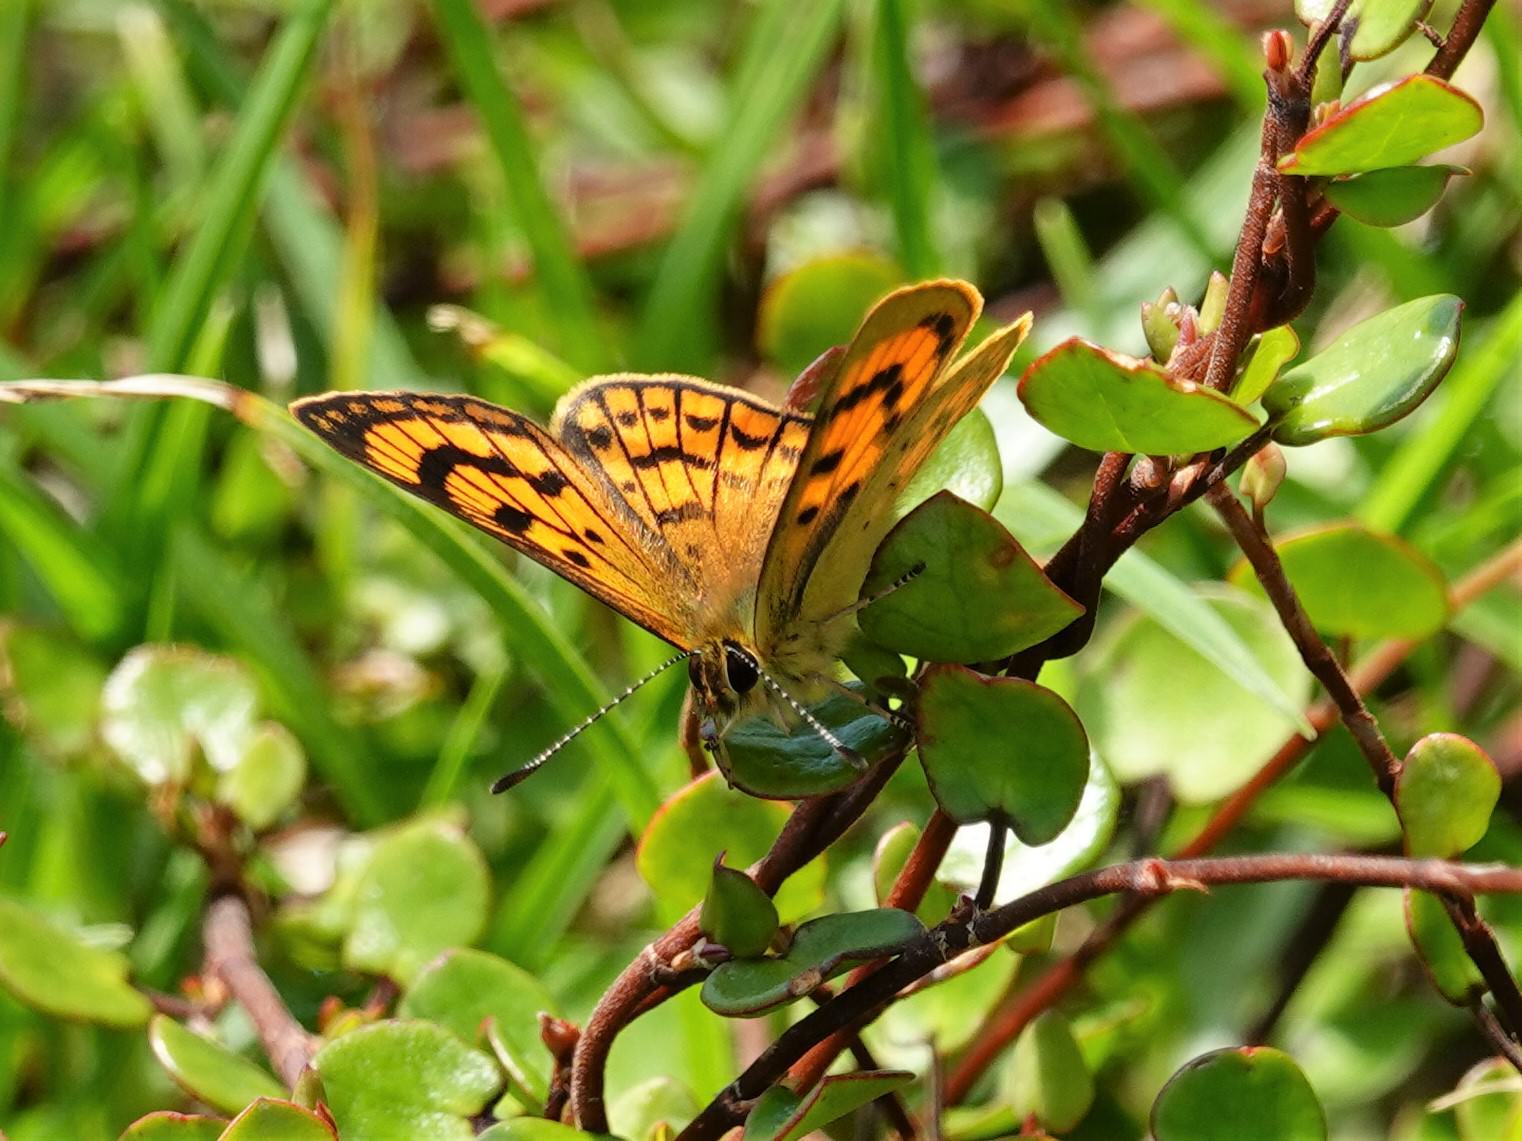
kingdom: Animalia
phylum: Arthropoda
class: Insecta
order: Lepidoptera
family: Lycaenidae
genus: Lycaena
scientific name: Lycaena salustius
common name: North island coastal copper
